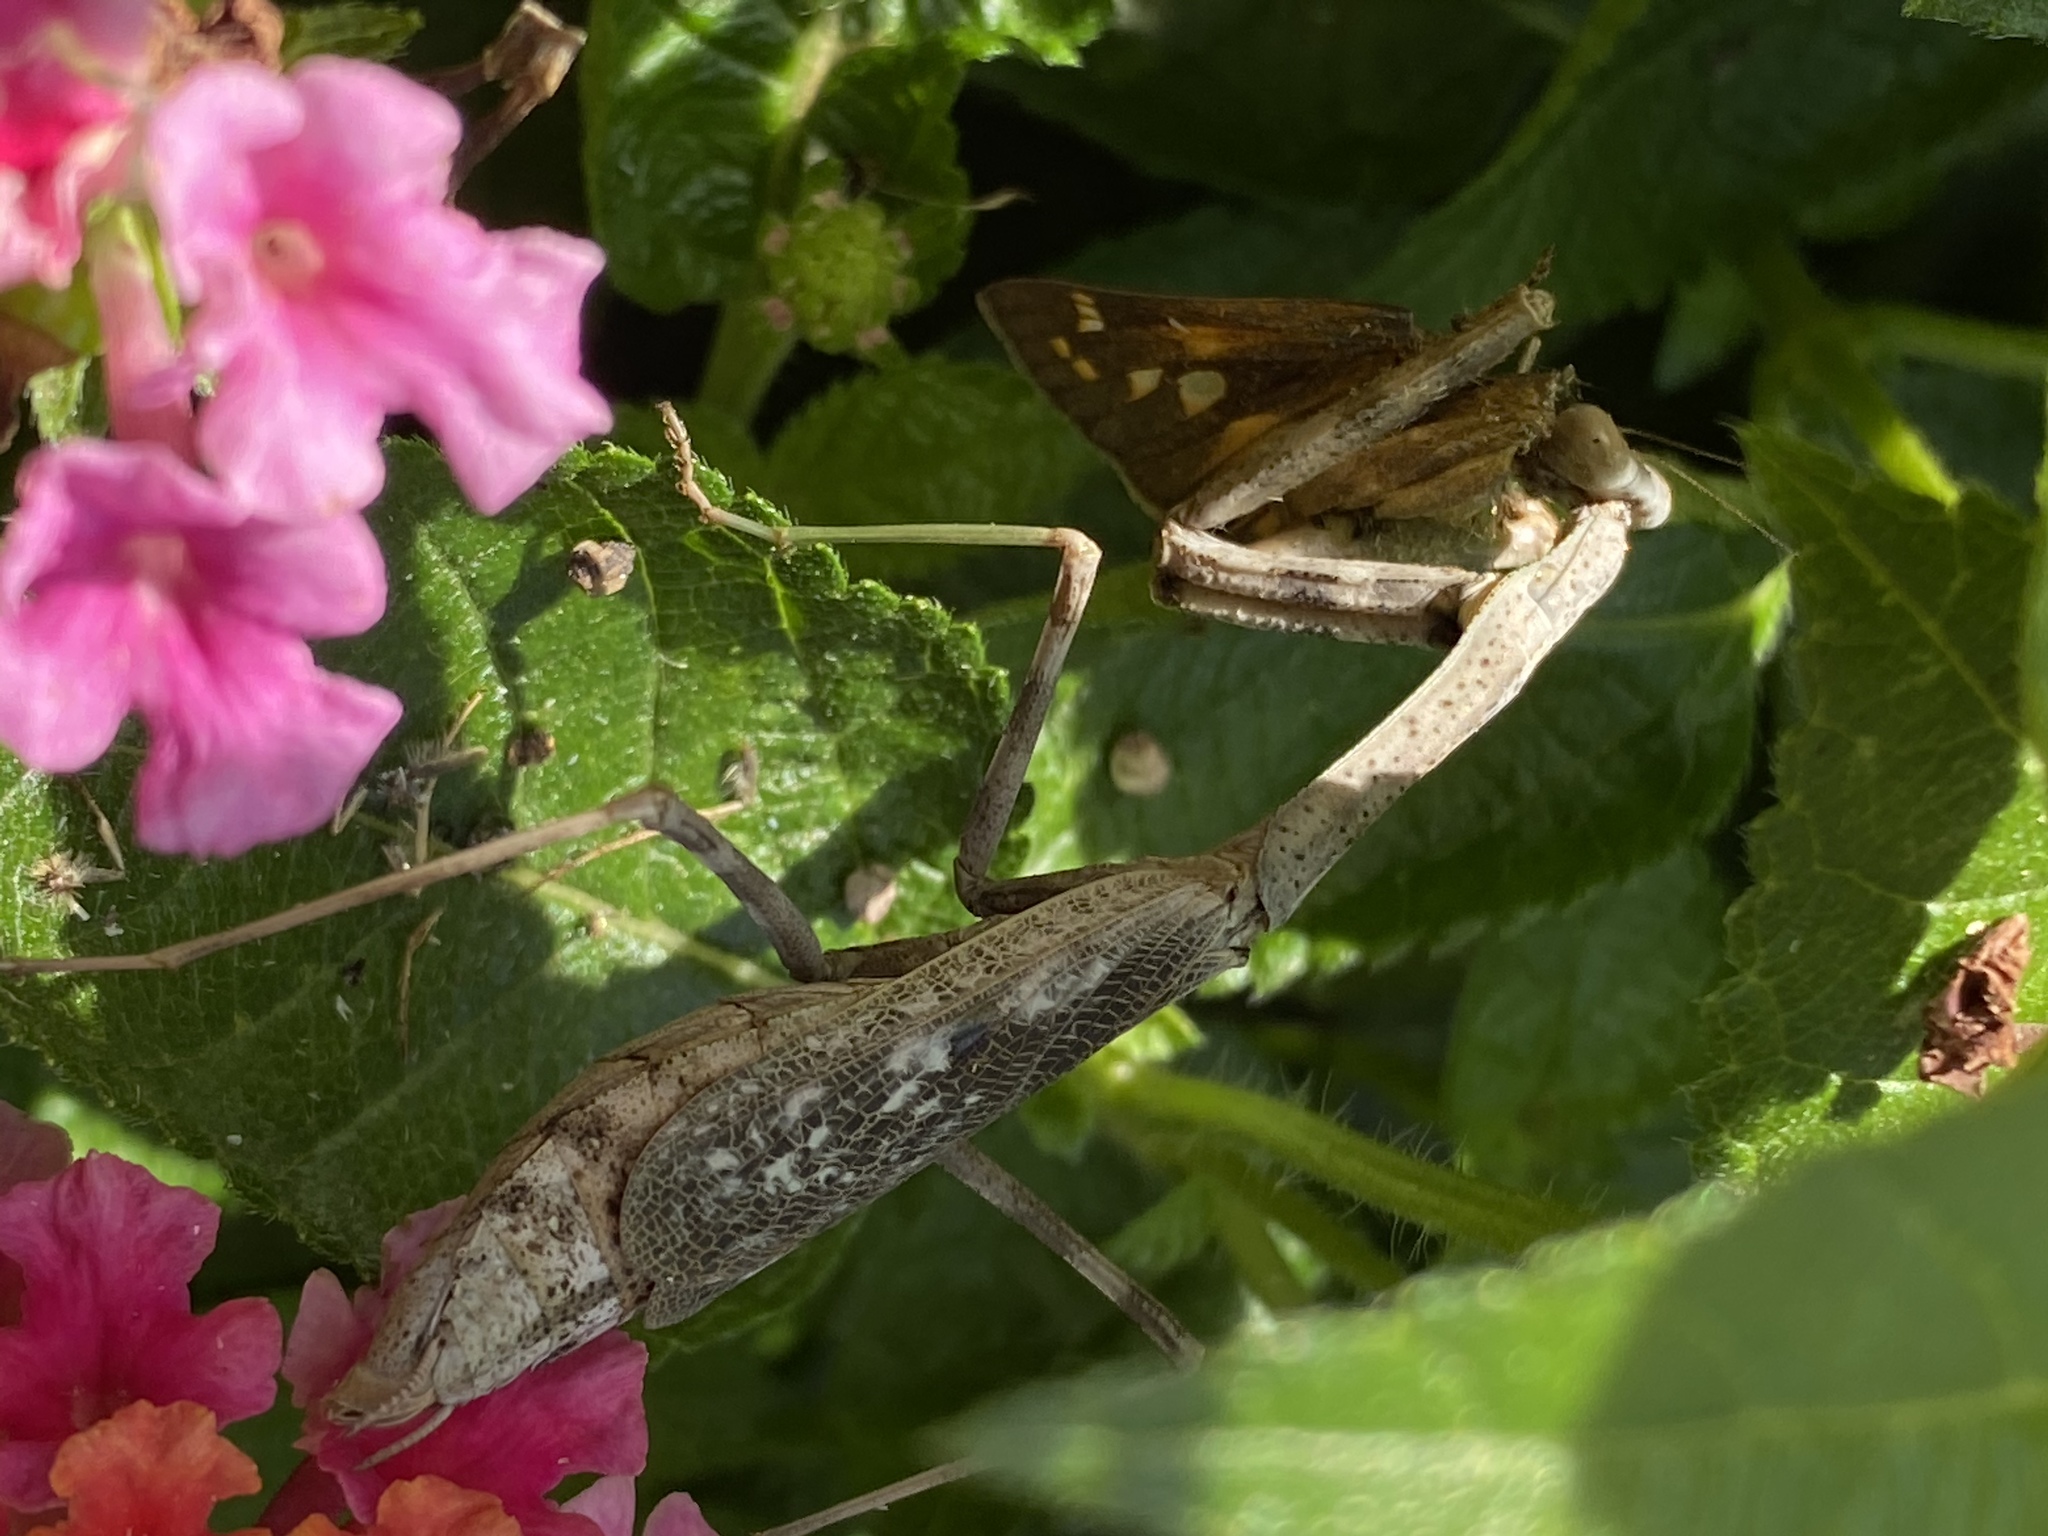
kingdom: Animalia
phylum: Arthropoda
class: Insecta
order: Mantodea
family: Mantidae
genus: Stagmomantis
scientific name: Stagmomantis carolina
